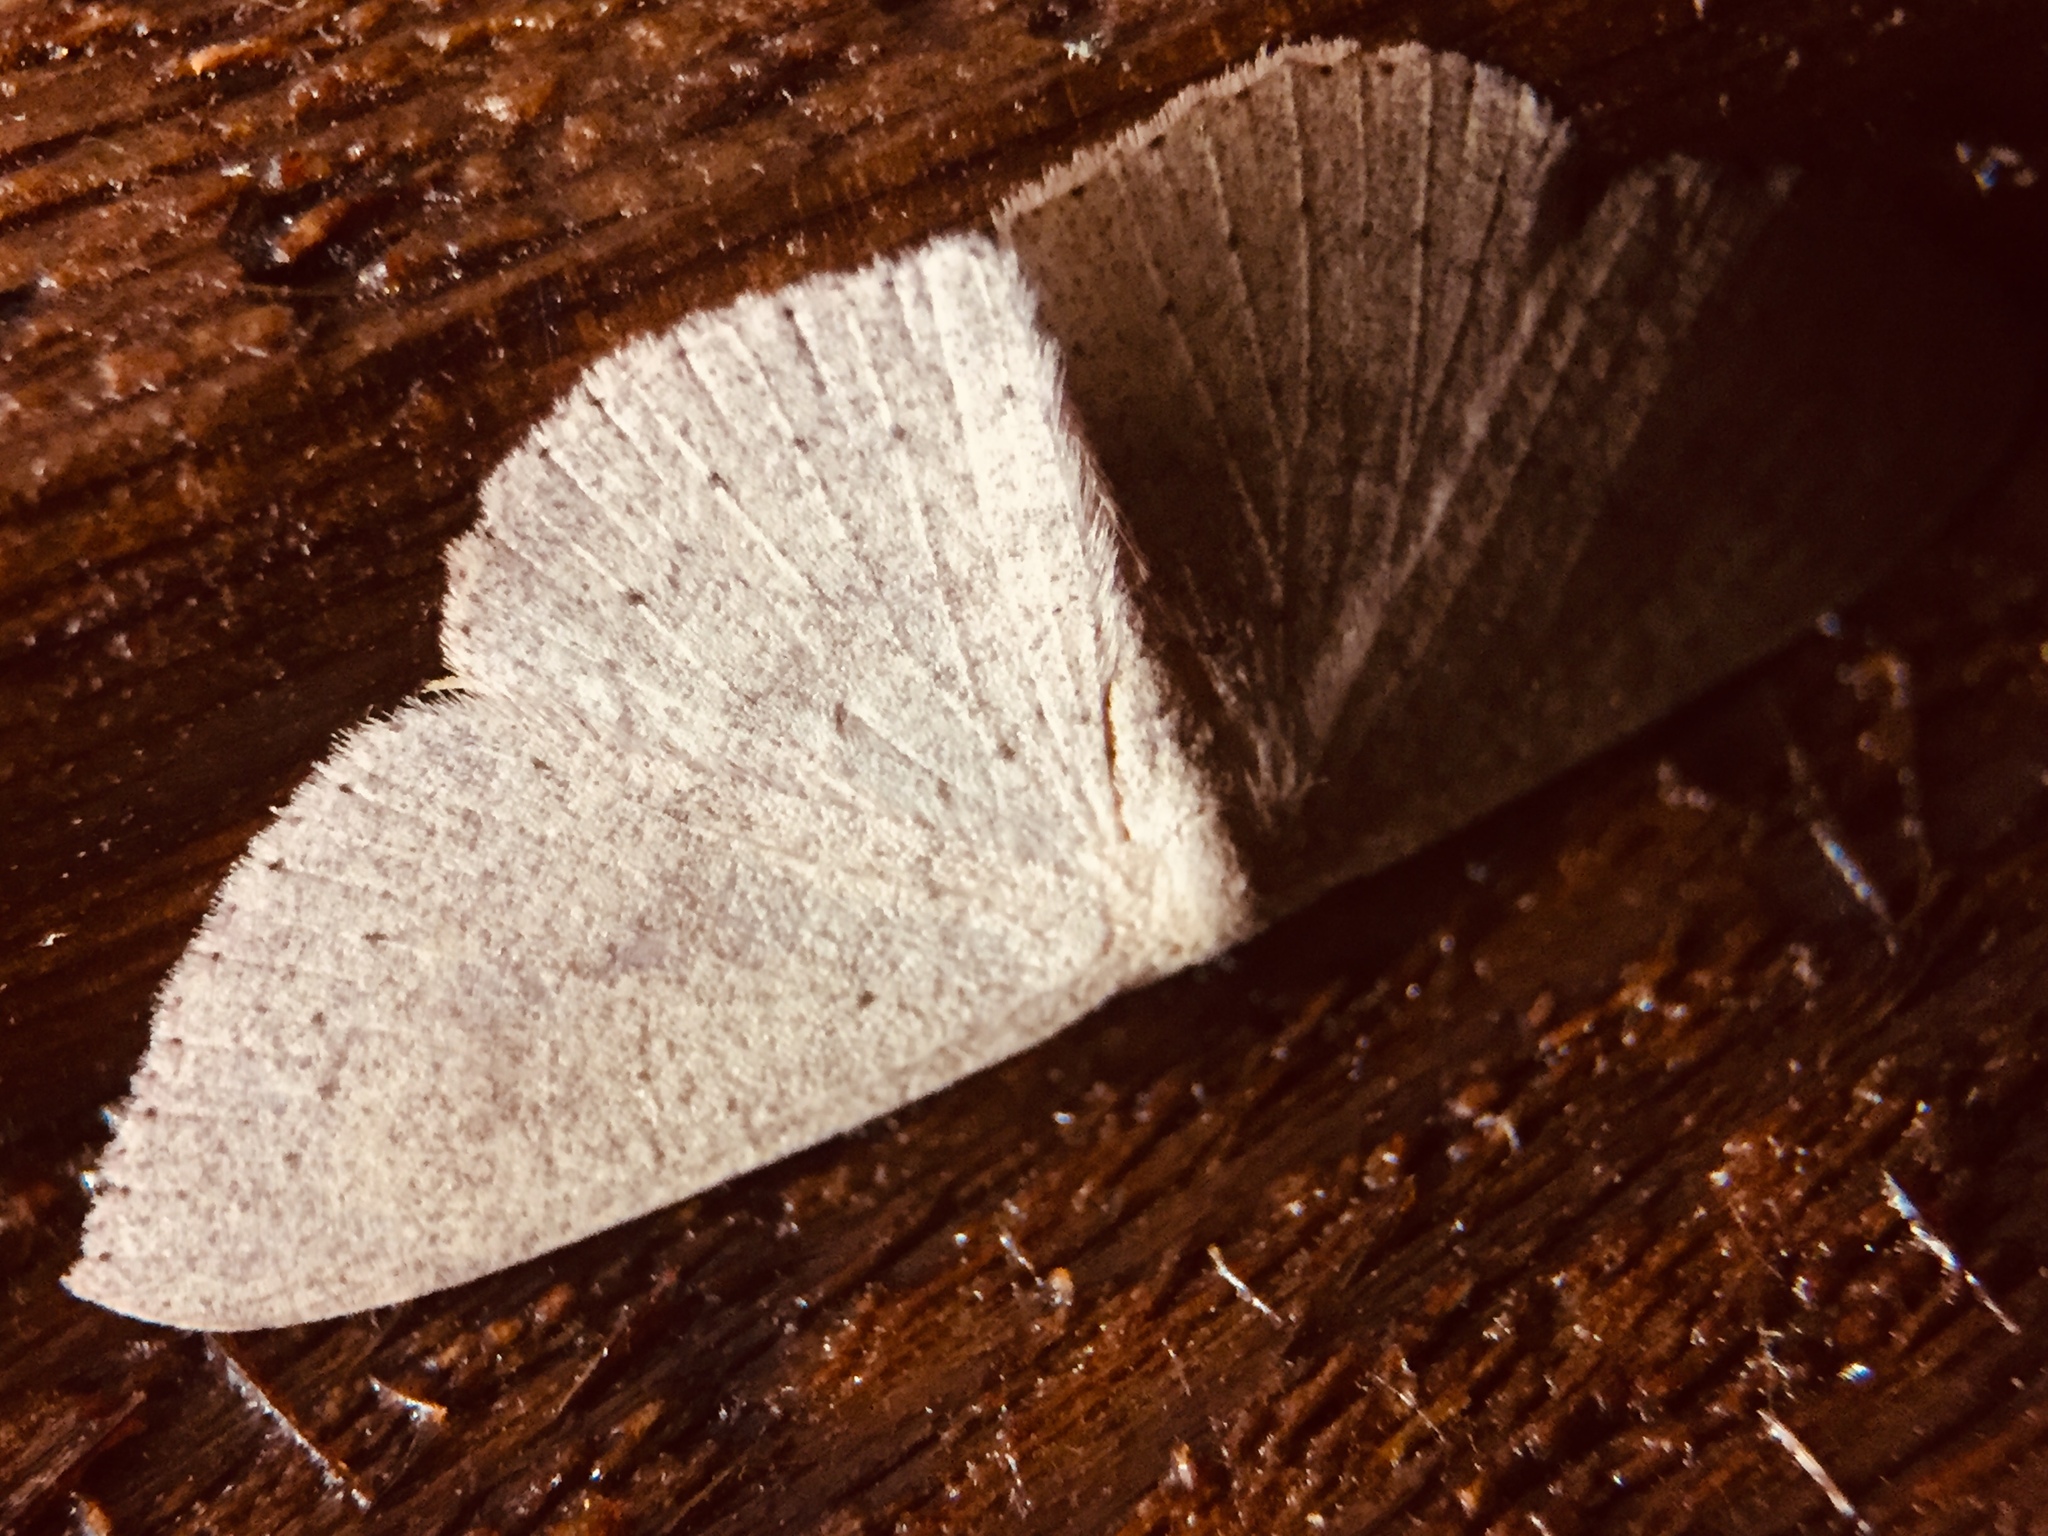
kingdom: Animalia
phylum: Arthropoda
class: Insecta
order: Lepidoptera
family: Geometridae
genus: Cyclophora
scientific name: Cyclophora obstataria
